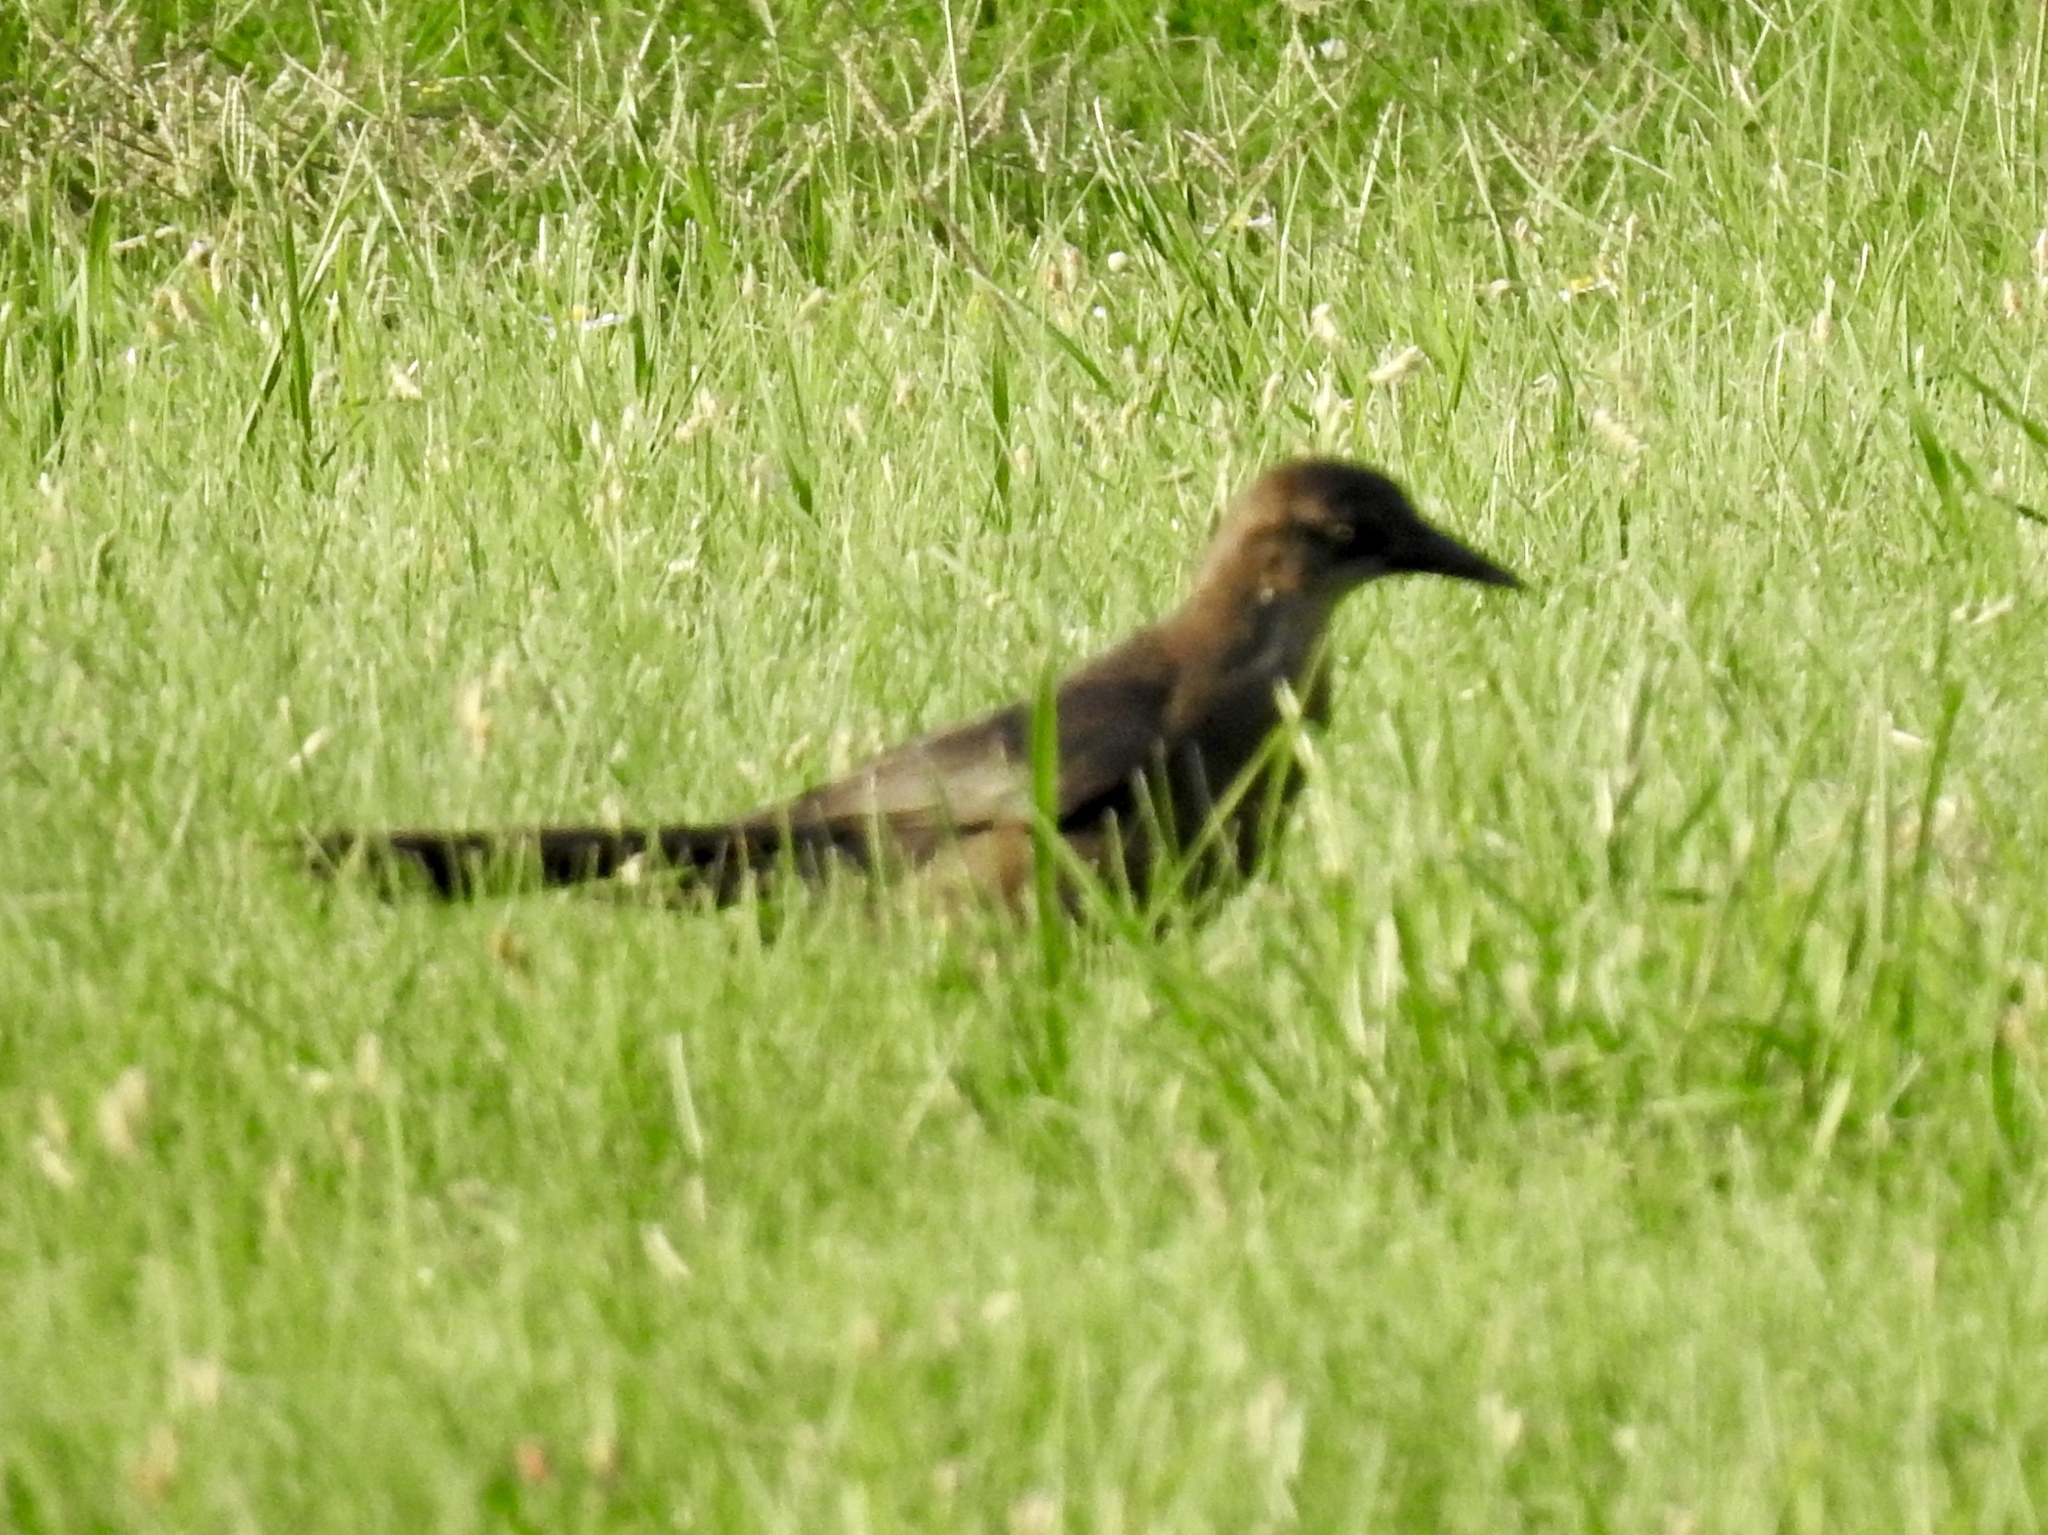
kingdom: Animalia
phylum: Chordata
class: Aves
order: Passeriformes
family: Icteridae
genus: Quiscalus
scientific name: Quiscalus mexicanus
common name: Great-tailed grackle
